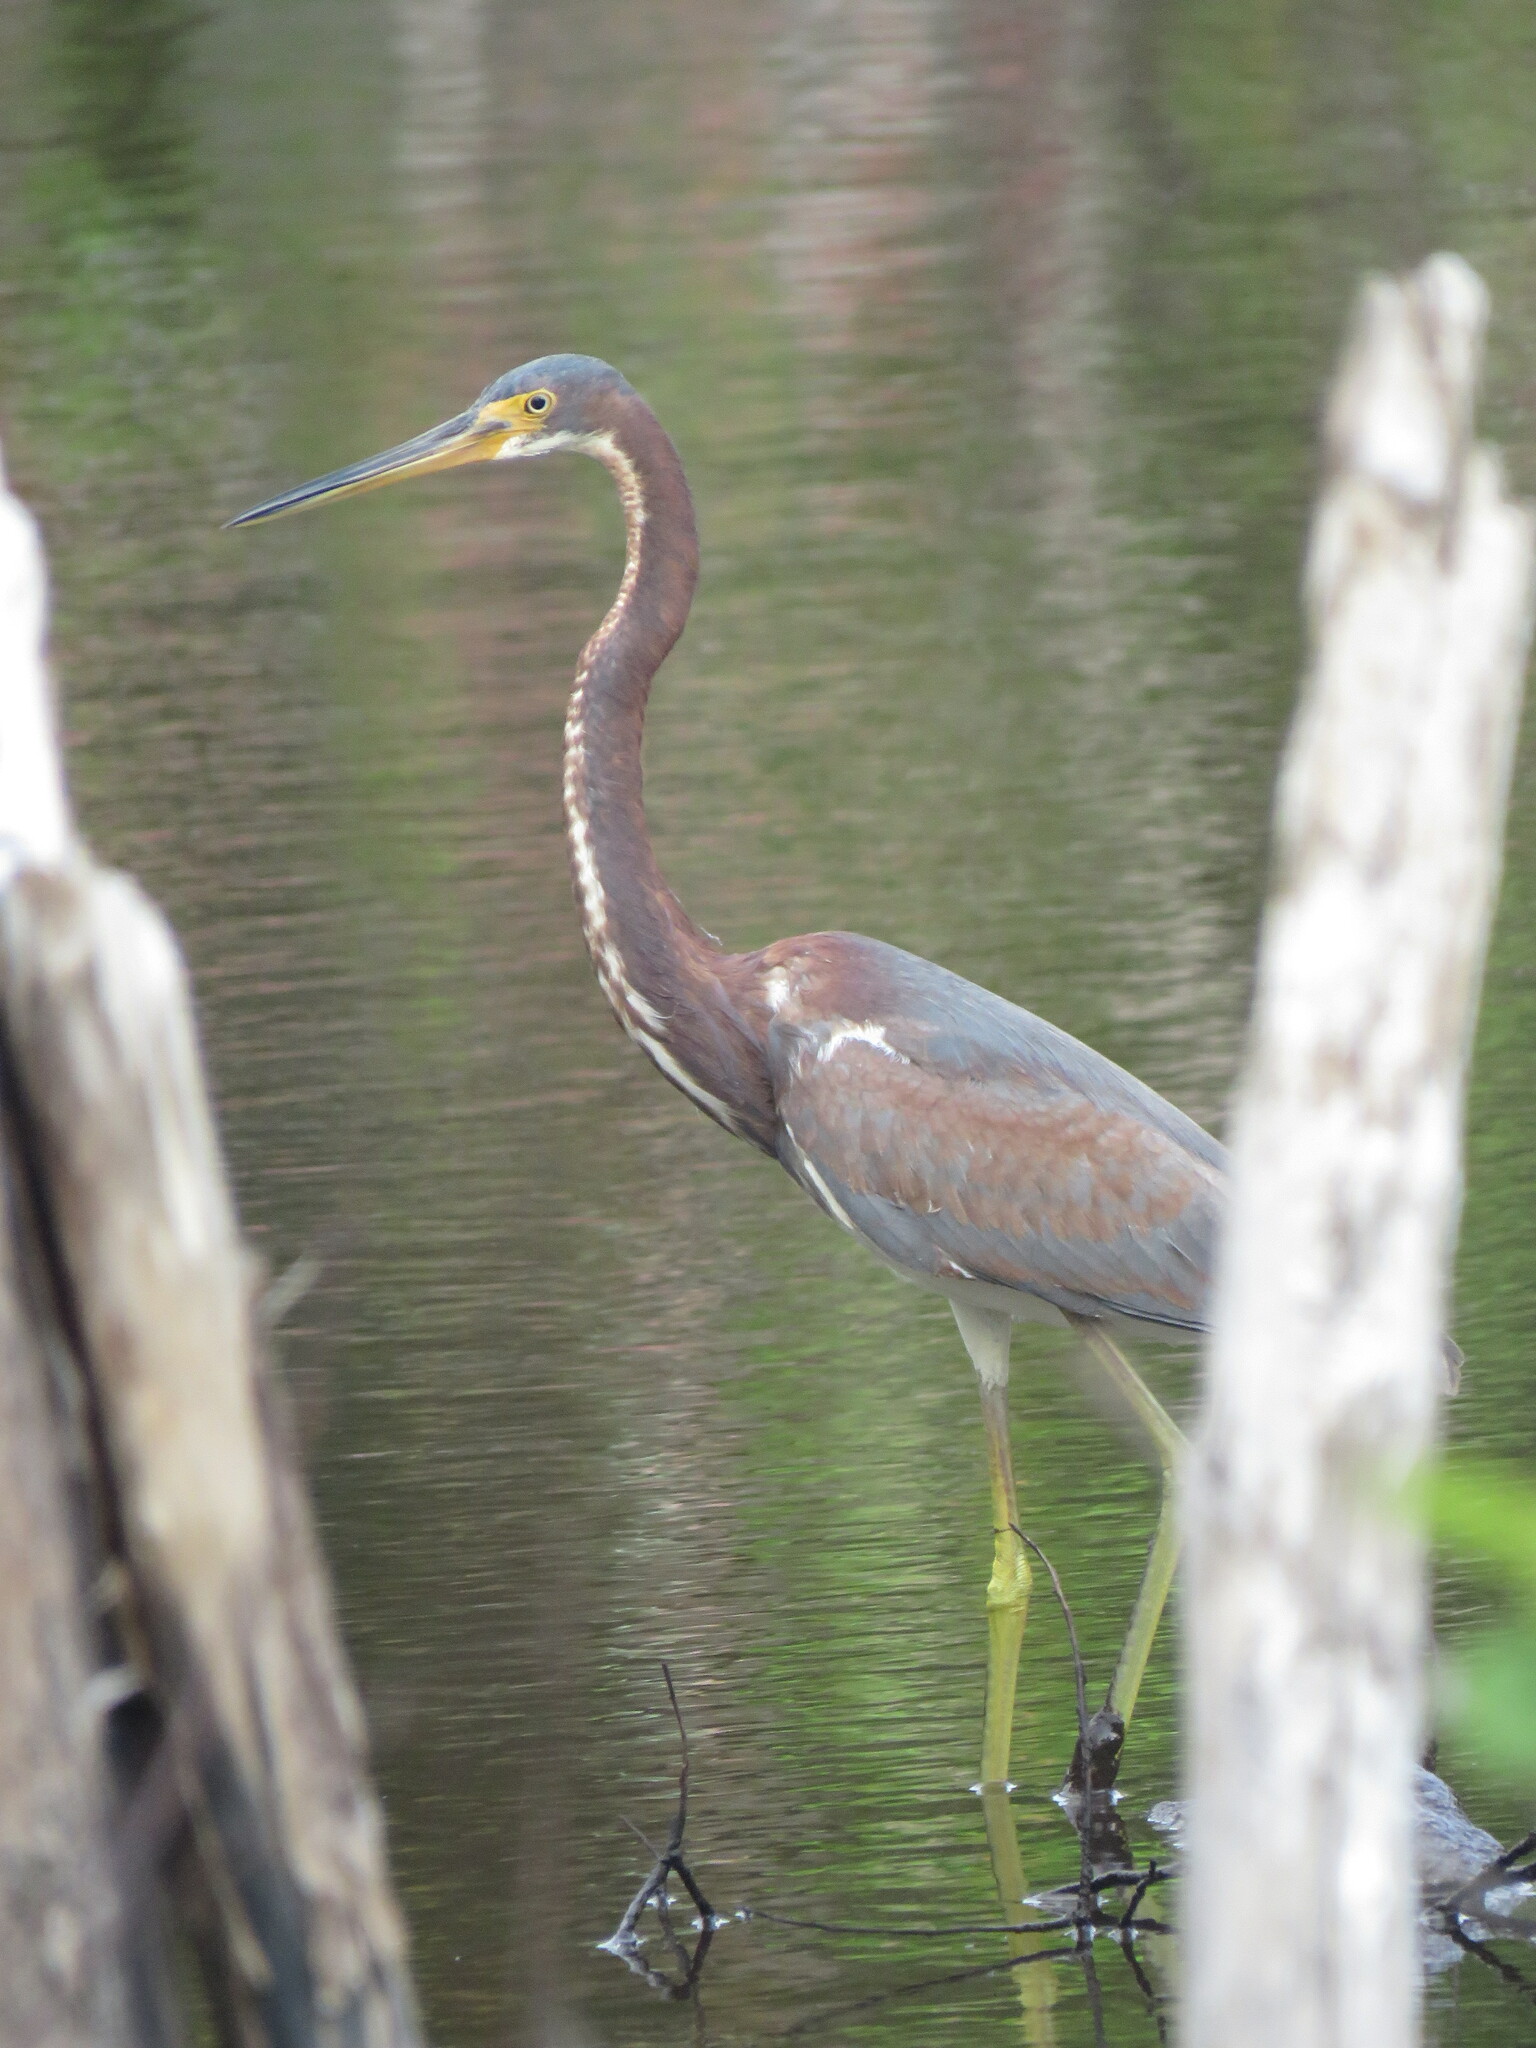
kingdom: Animalia
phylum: Chordata
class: Aves
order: Pelecaniformes
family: Ardeidae
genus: Egretta
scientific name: Egretta tricolor
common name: Tricolored heron
